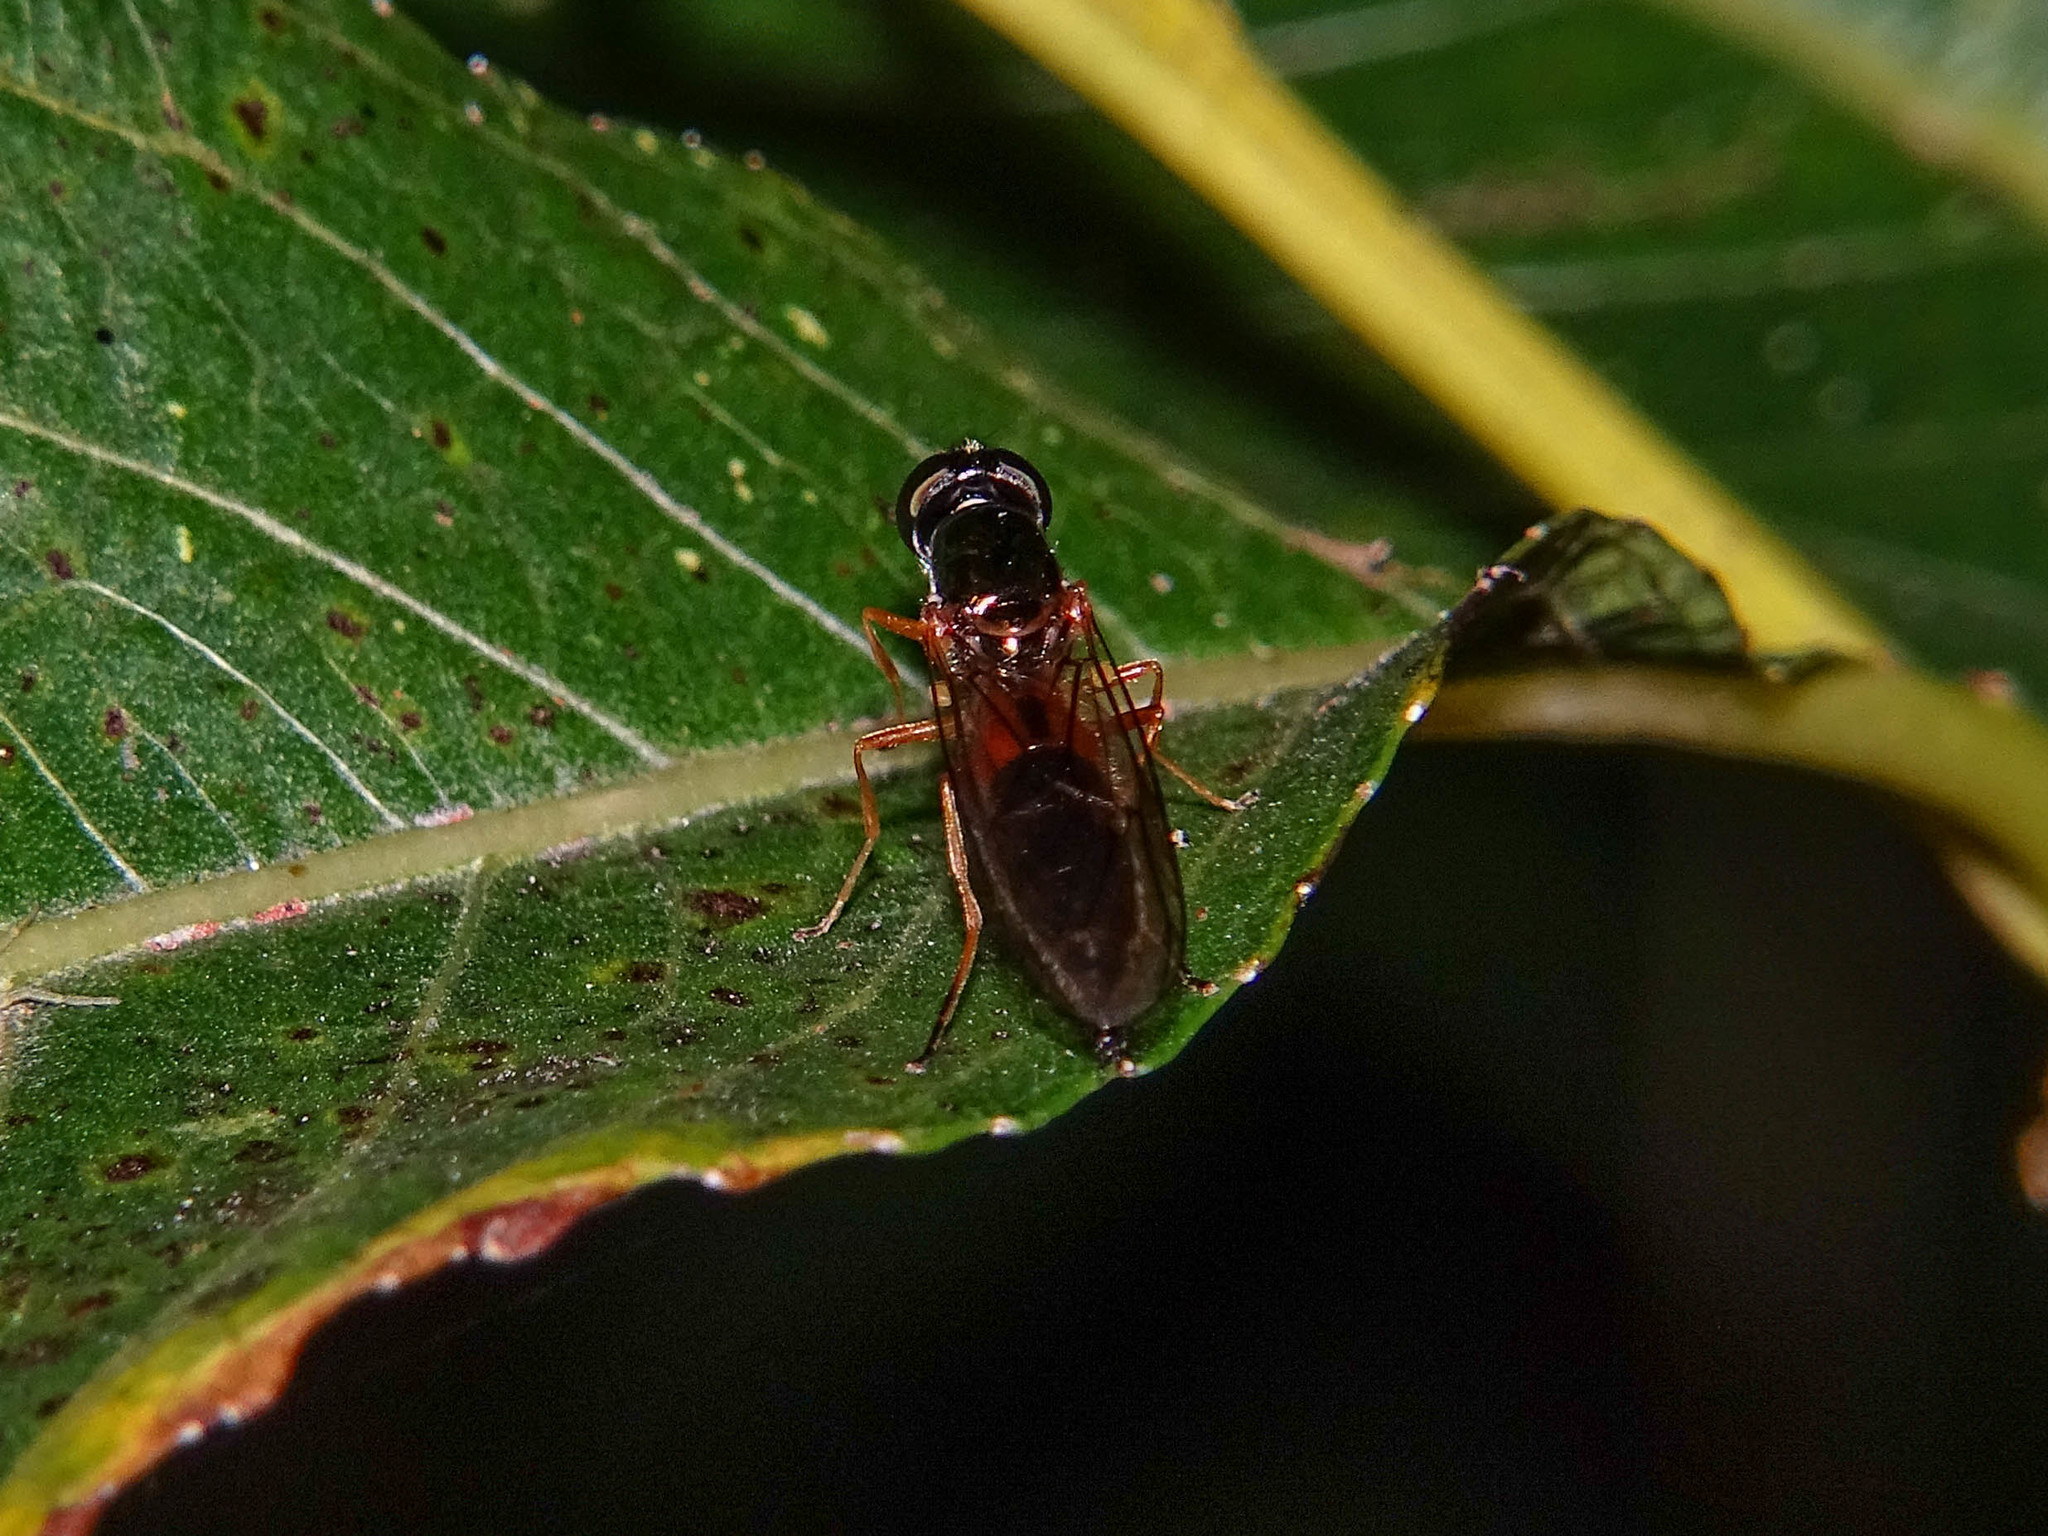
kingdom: Animalia
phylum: Arthropoda
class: Insecta
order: Diptera
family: Stratiomyidae
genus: Sargus
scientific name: Sargus bipunctatus
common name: Twin-spot centurion
